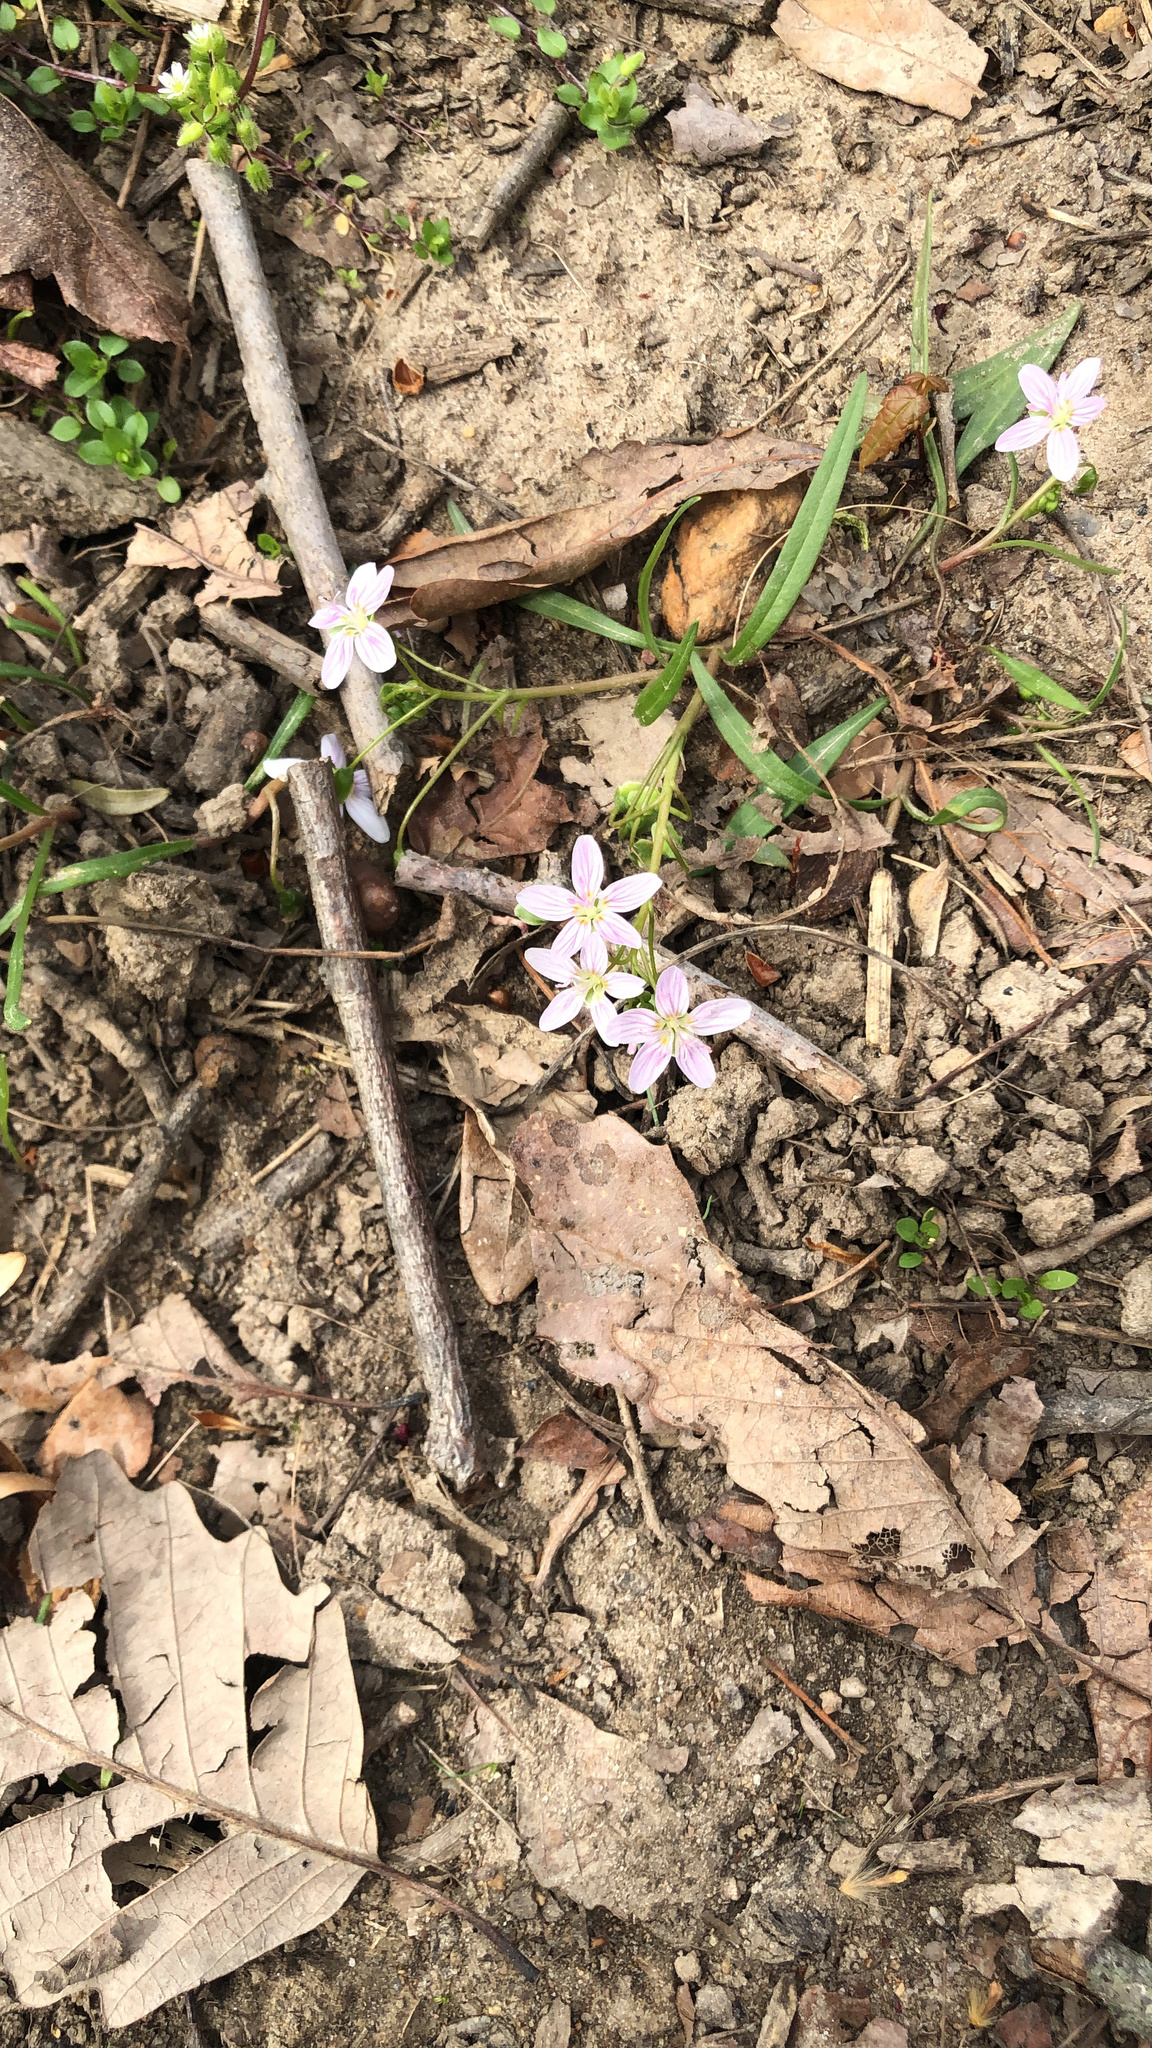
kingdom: Plantae
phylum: Tracheophyta
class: Magnoliopsida
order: Caryophyllales
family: Montiaceae
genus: Claytonia
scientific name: Claytonia virginica
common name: Virginia springbeauty
